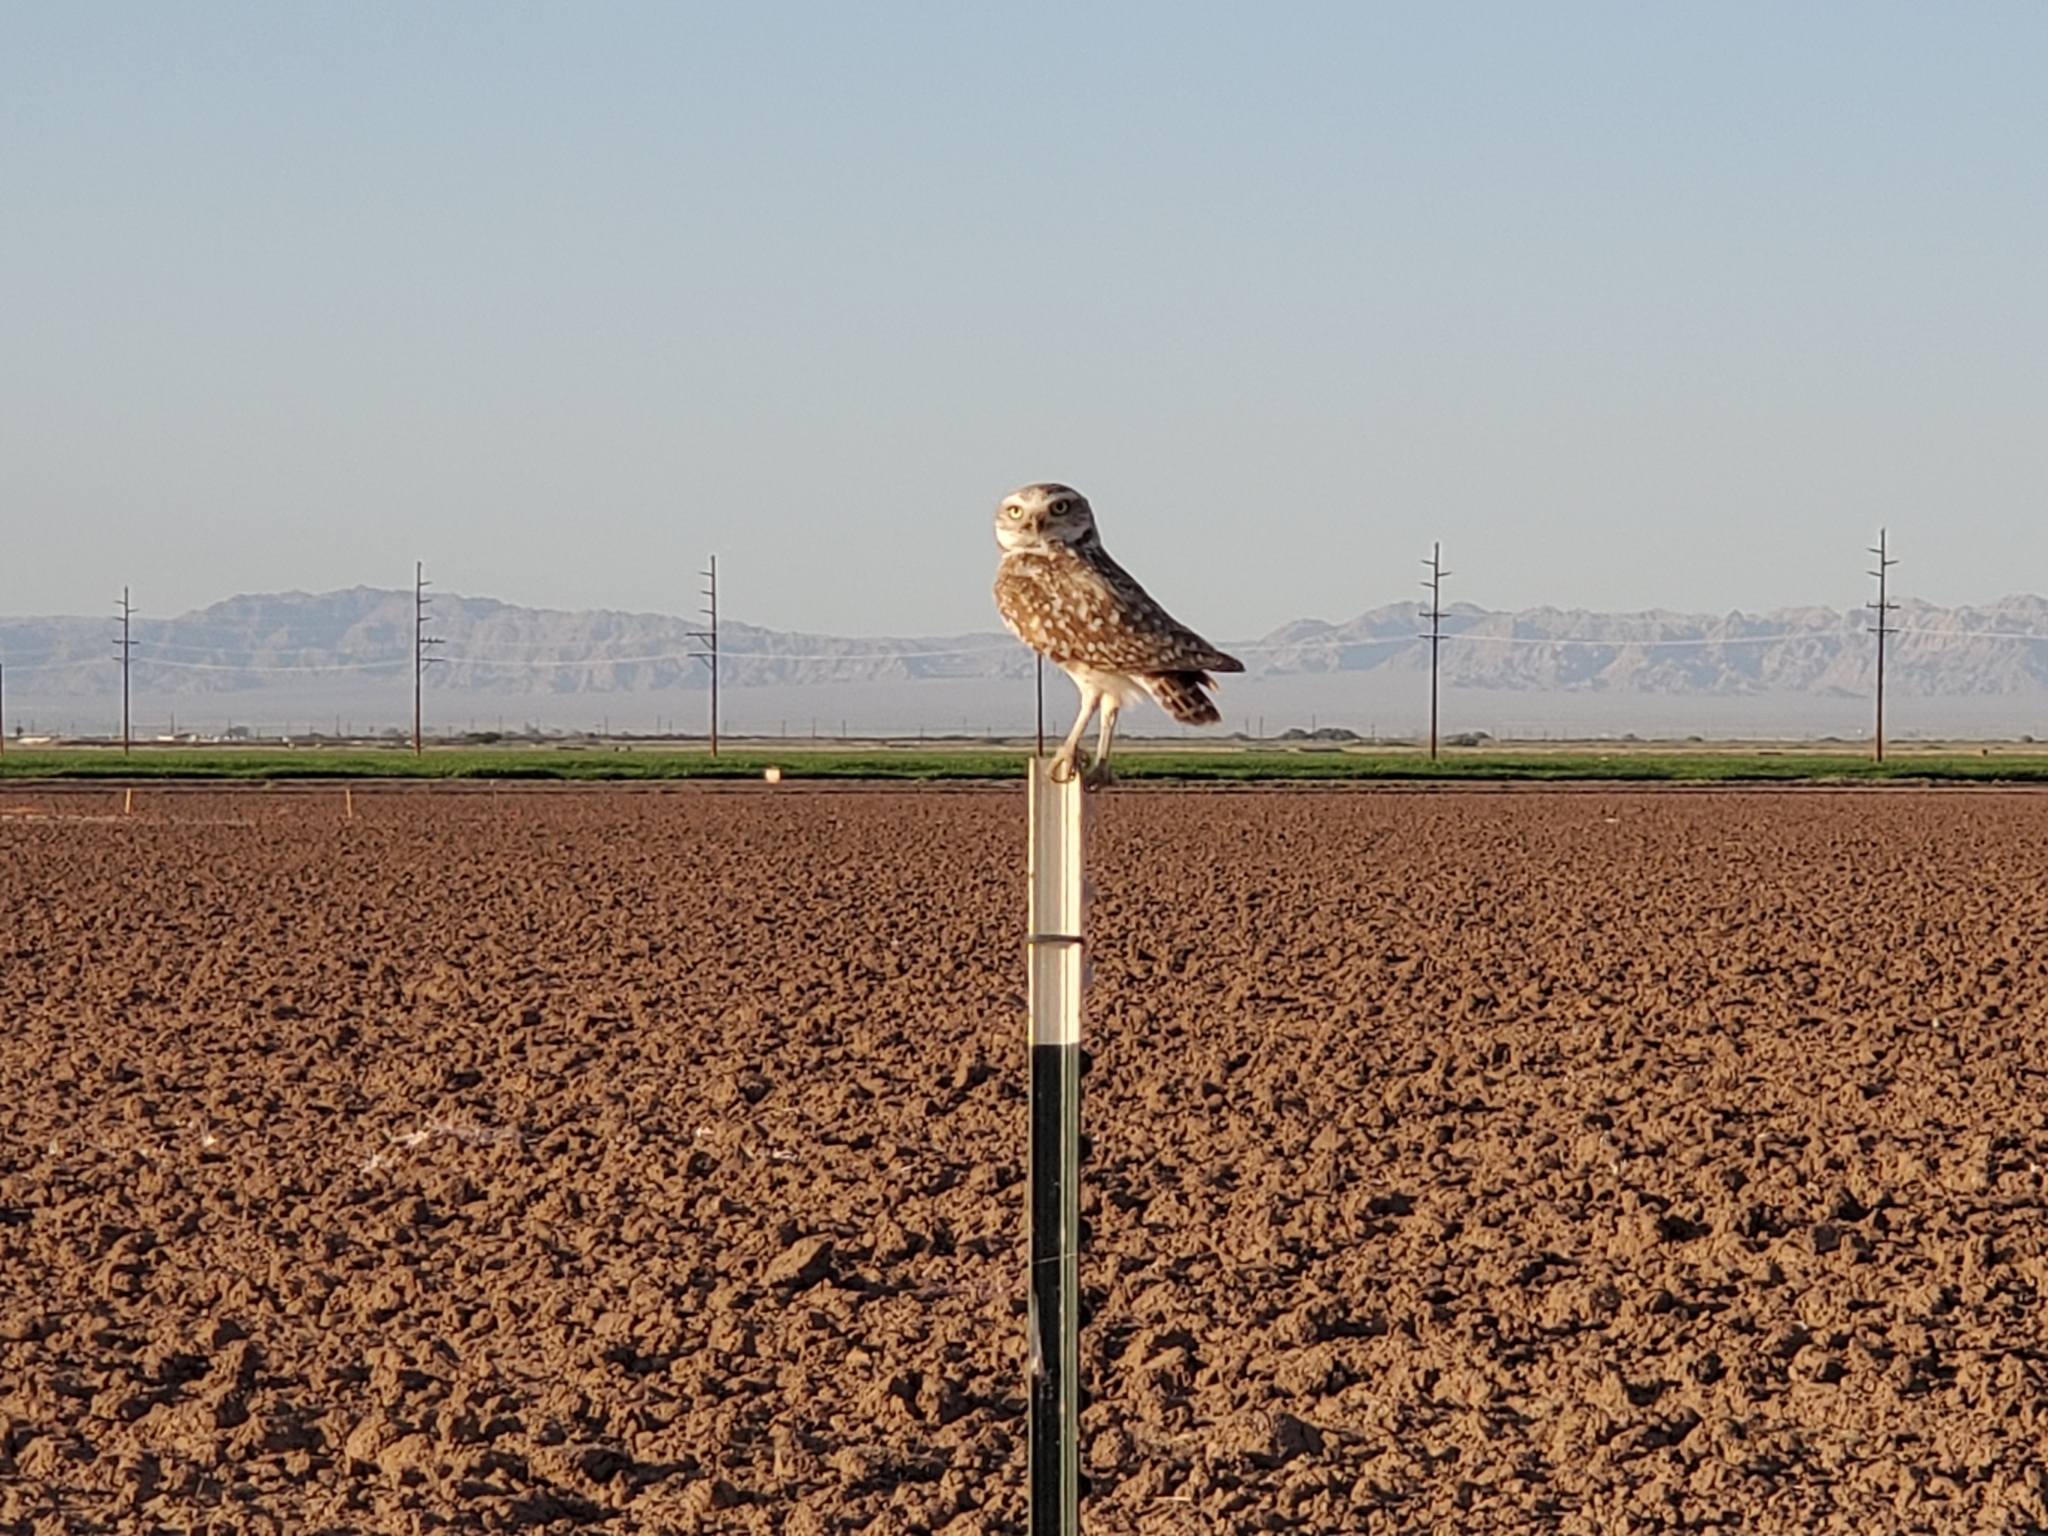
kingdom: Animalia
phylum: Chordata
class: Aves
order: Strigiformes
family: Strigidae
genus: Athene
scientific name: Athene cunicularia
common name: Burrowing owl
